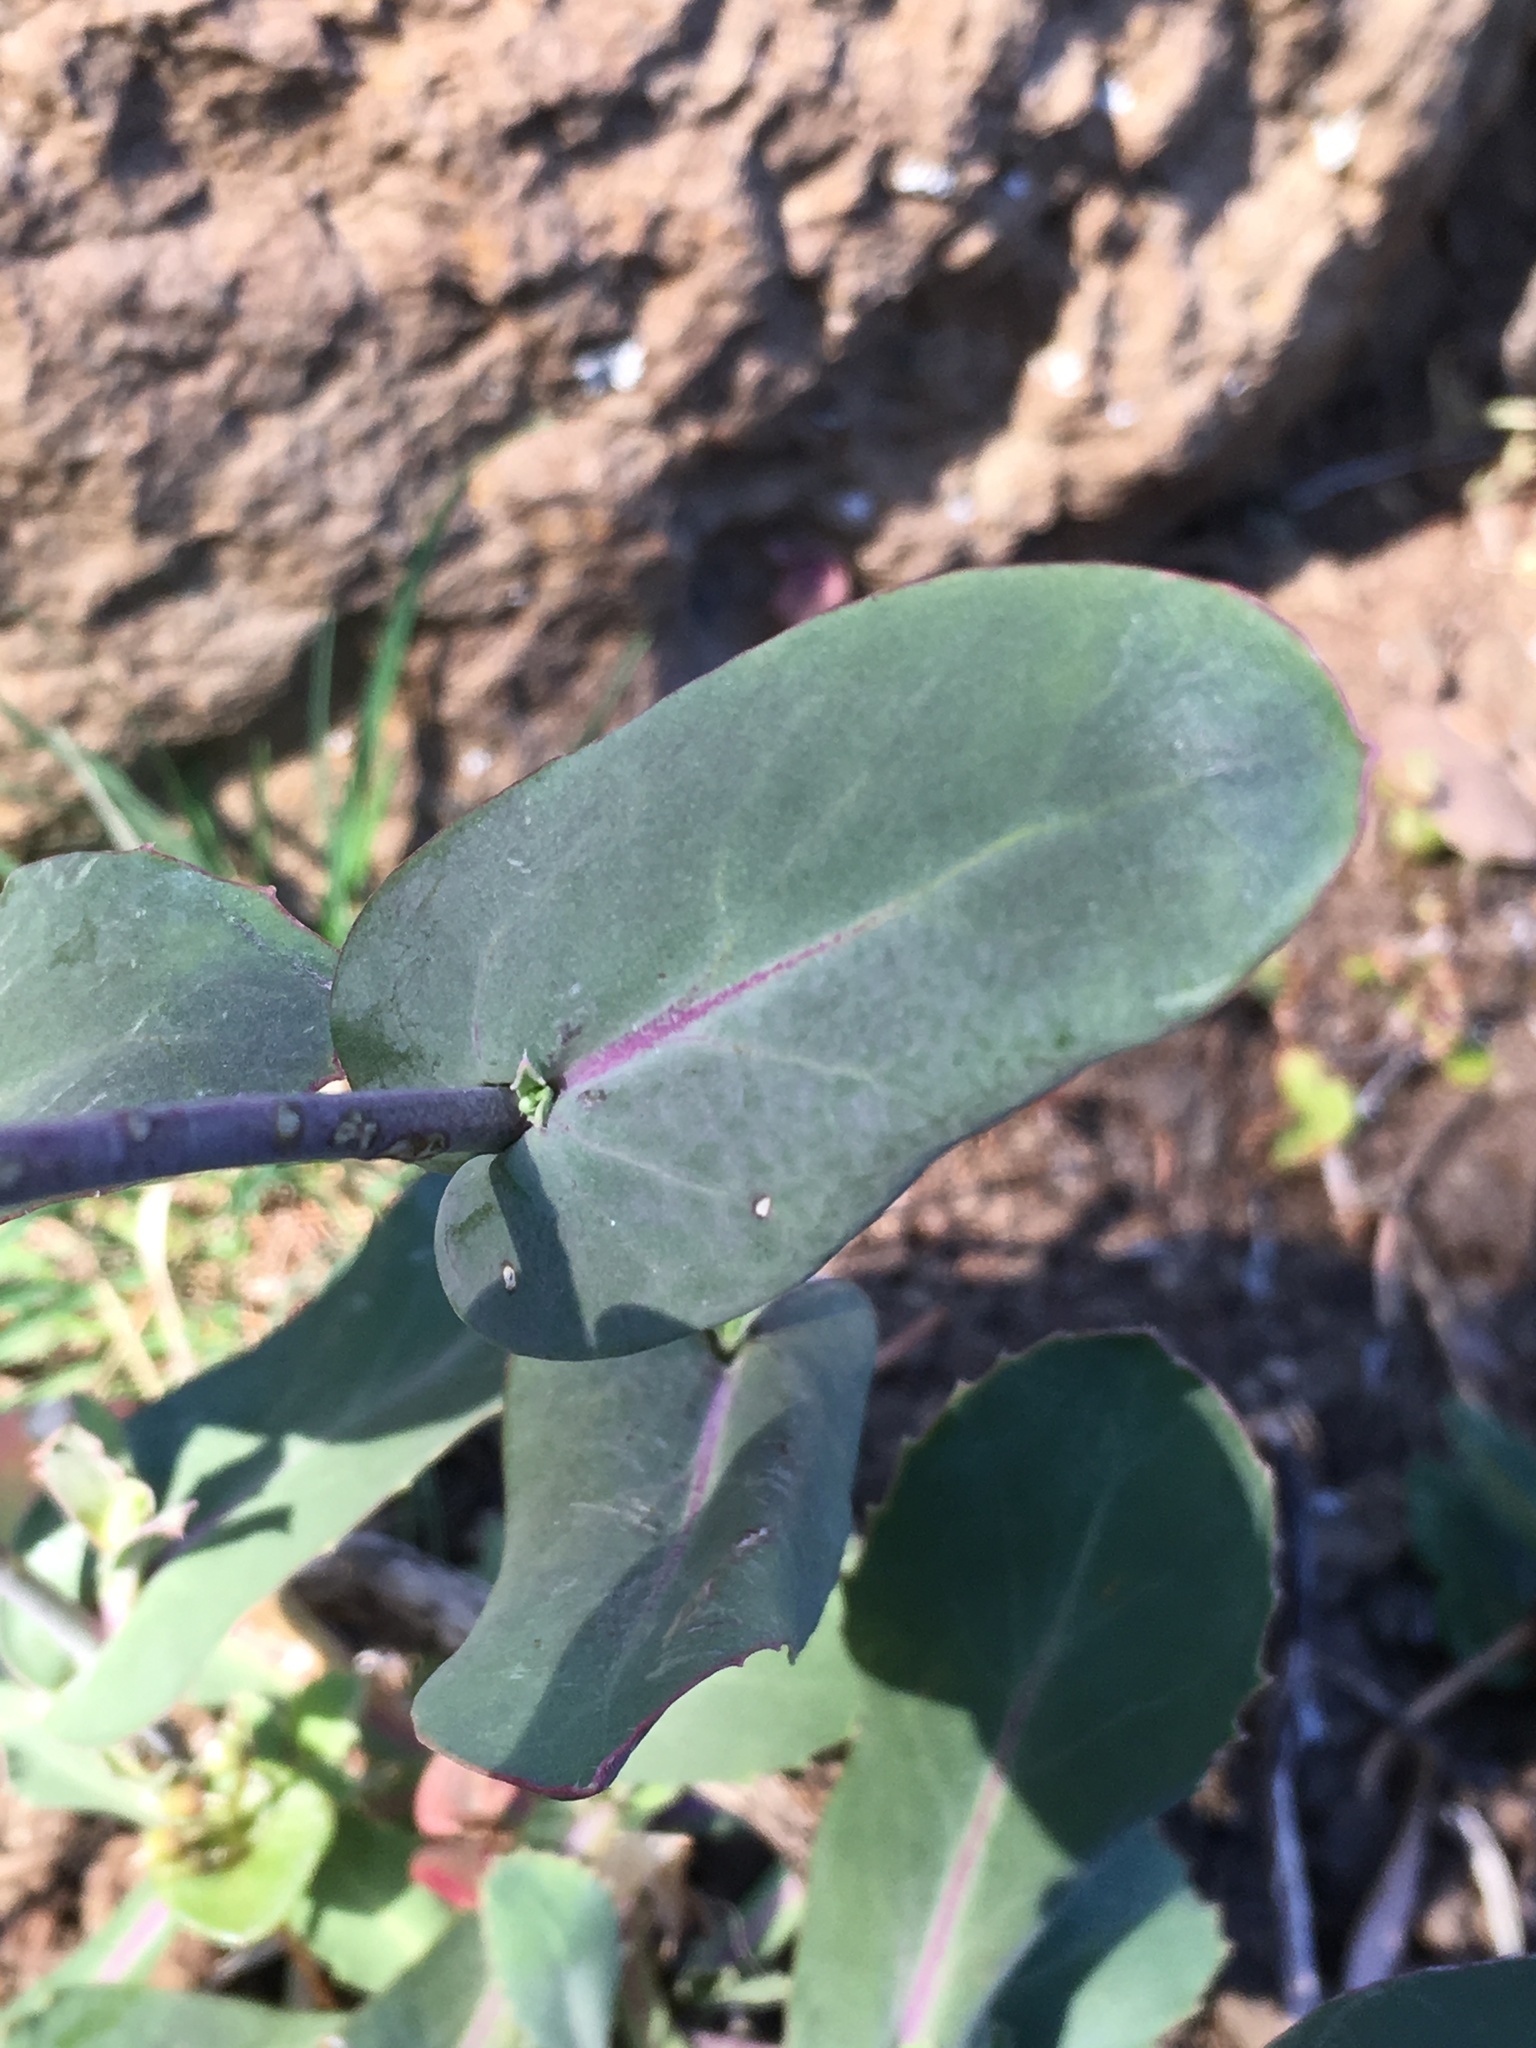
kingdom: Plantae
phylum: Tracheophyta
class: Magnoliopsida
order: Brassicales
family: Brassicaceae
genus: Streptanthus
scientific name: Streptanthus cordatus
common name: Heart-leaf jewel-flower
